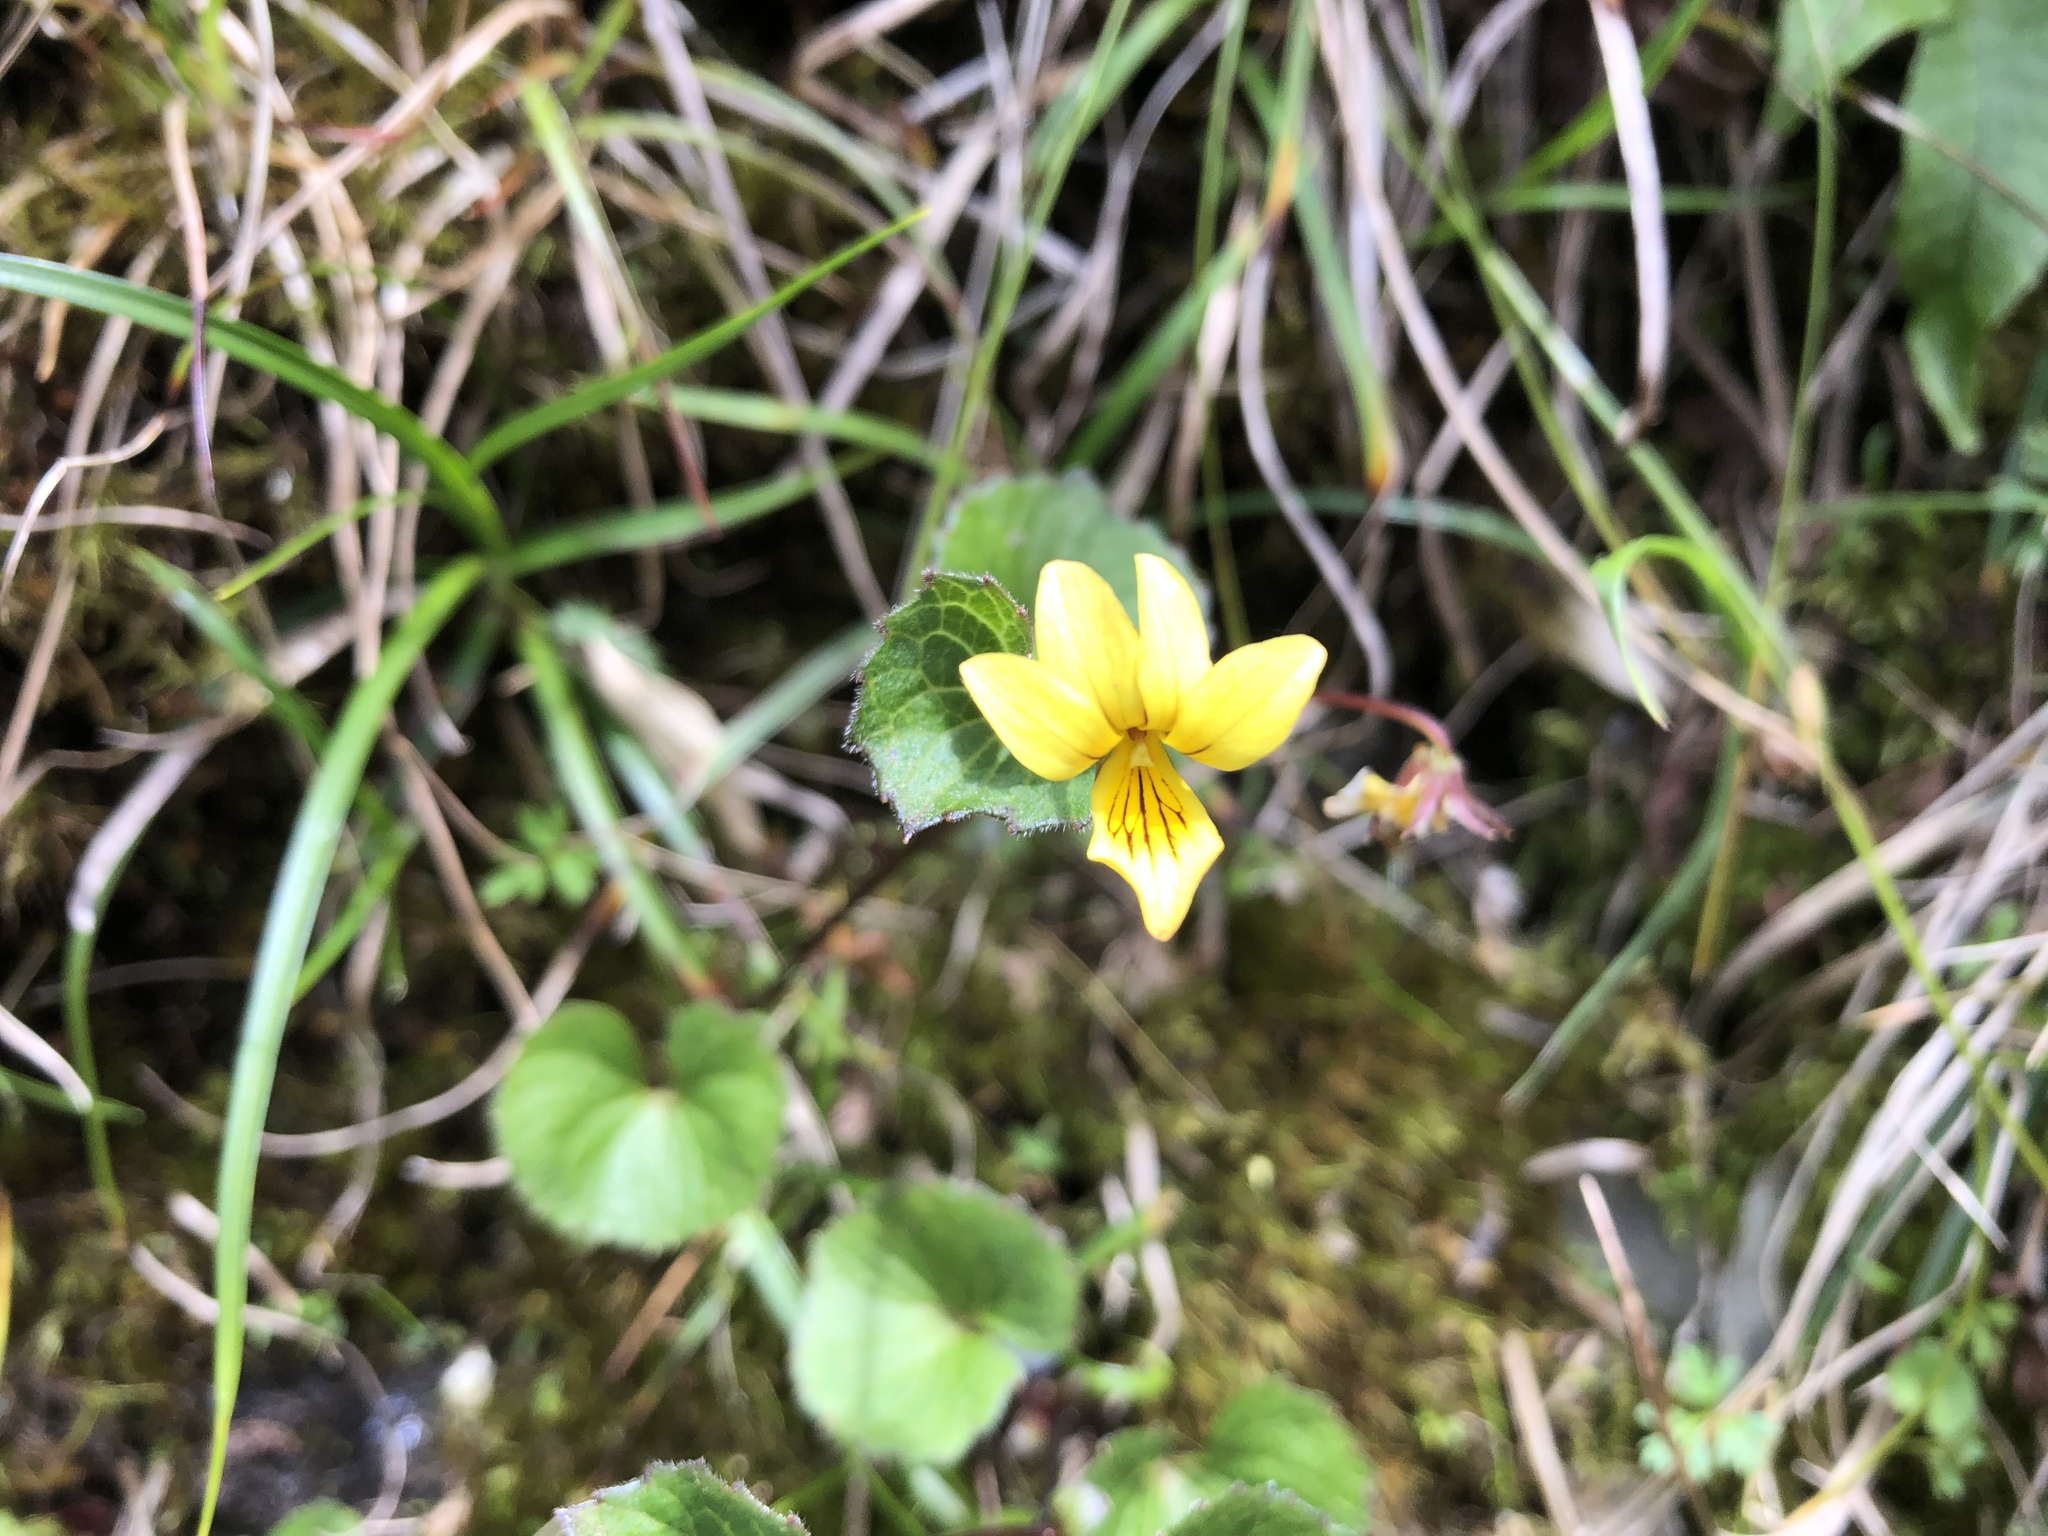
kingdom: Plantae
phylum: Tracheophyta
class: Magnoliopsida
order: Malpighiales
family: Violaceae
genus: Viola
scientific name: Viola biflora
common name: Alpine yellow violet
